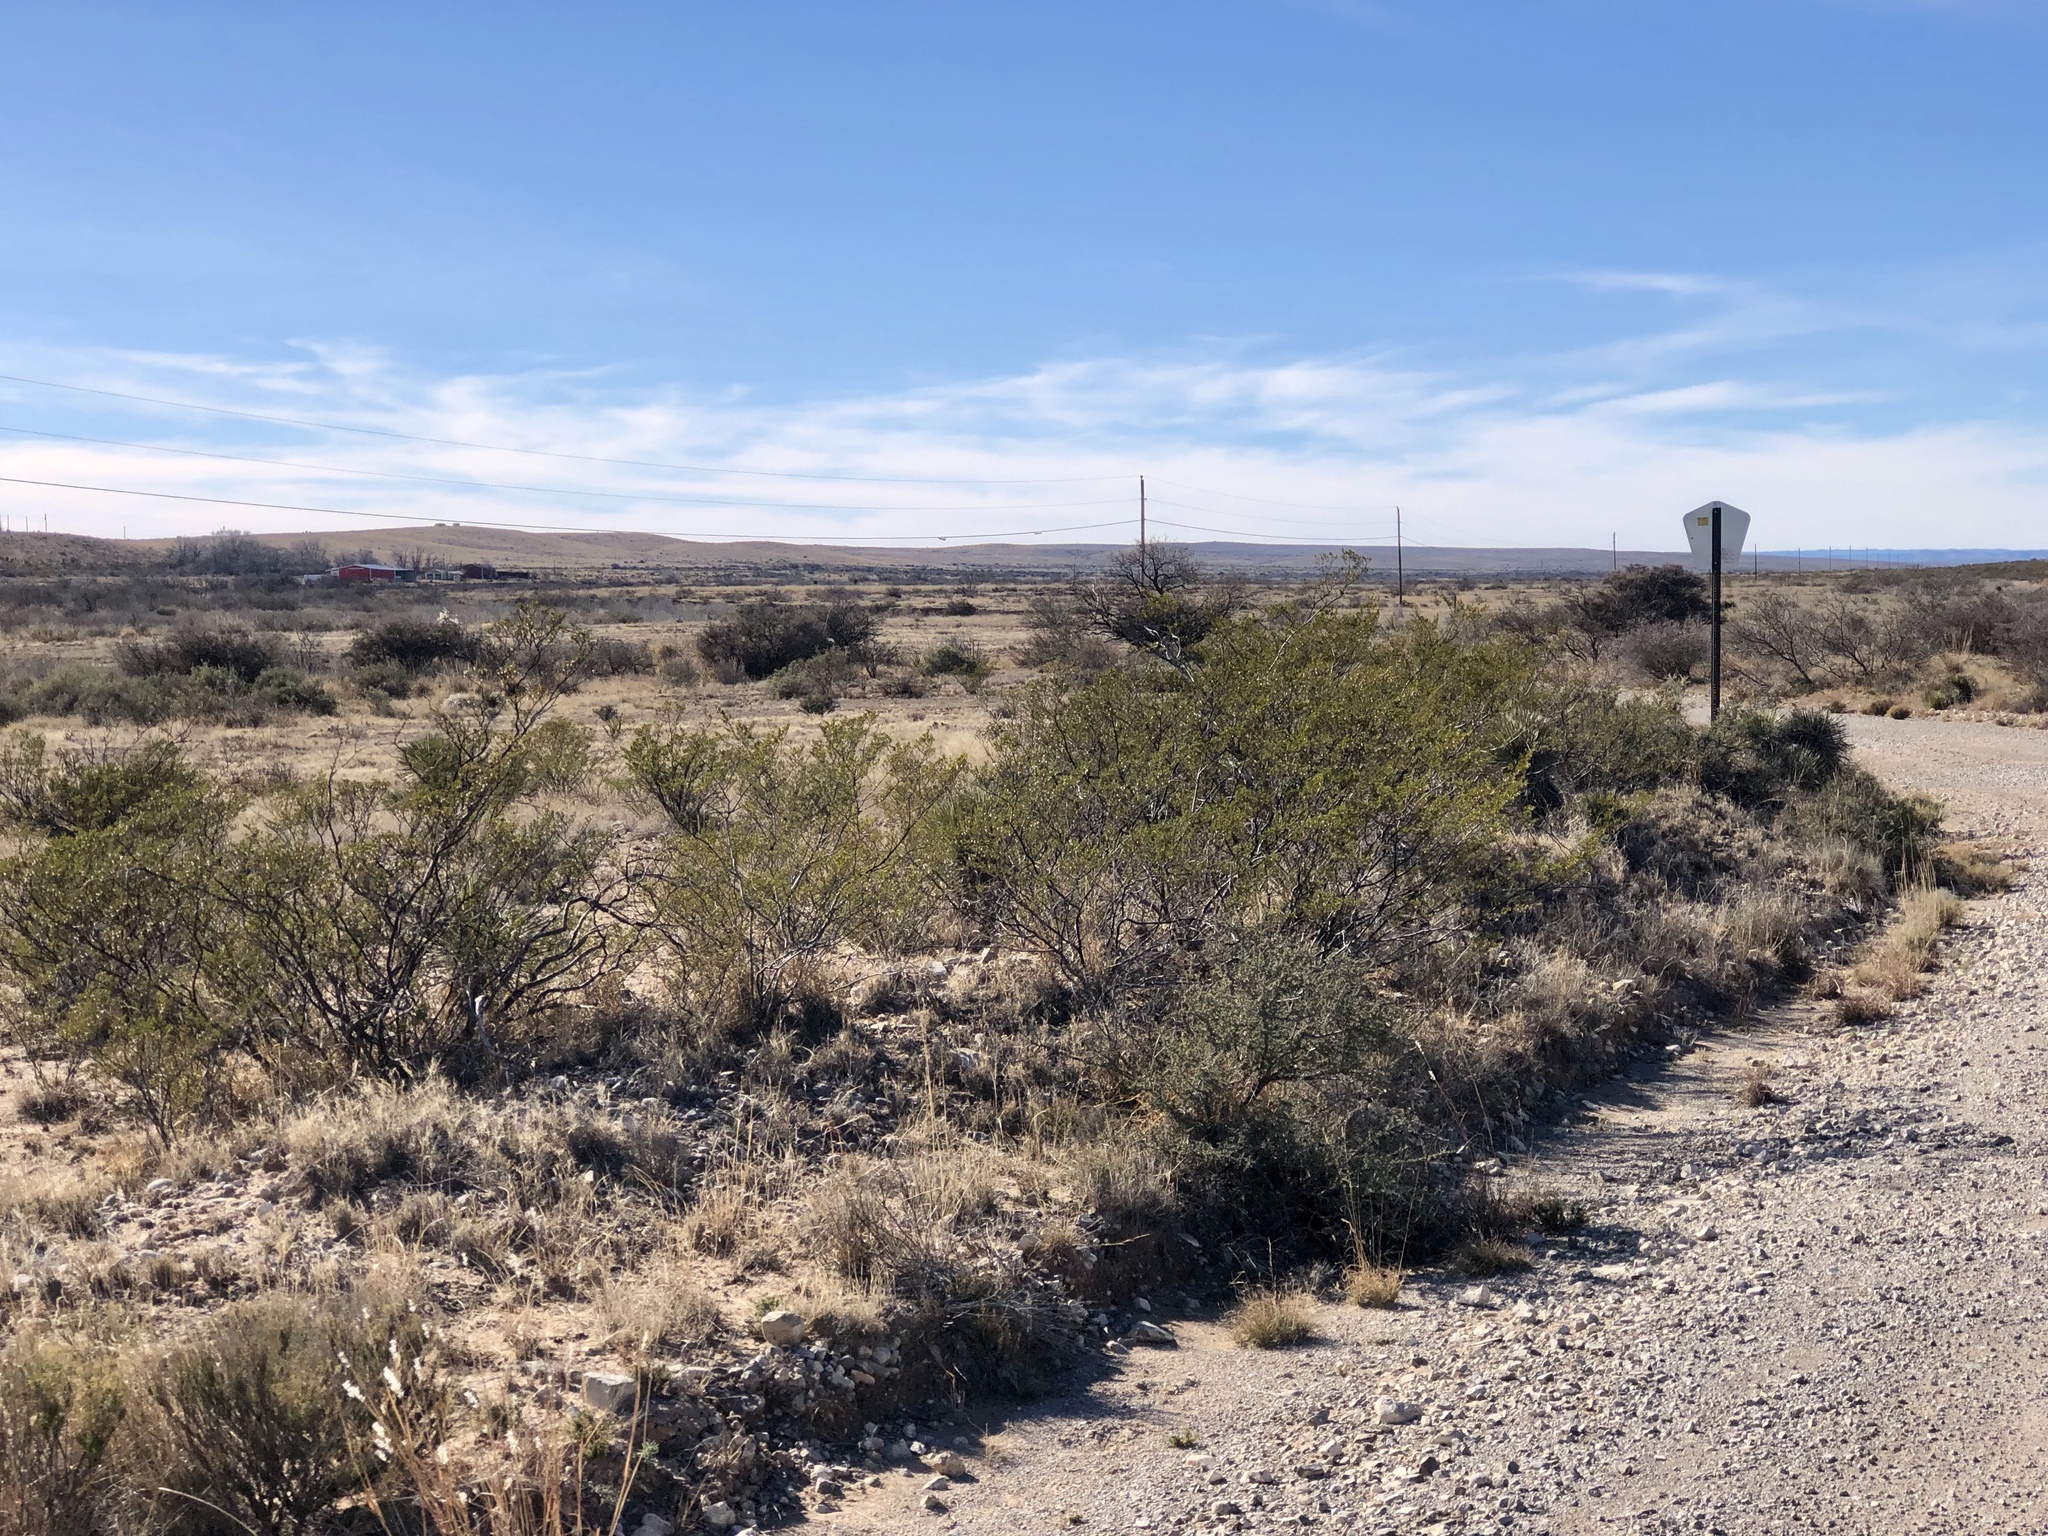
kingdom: Plantae
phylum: Tracheophyta
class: Magnoliopsida
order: Zygophyllales
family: Zygophyllaceae
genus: Larrea
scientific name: Larrea tridentata
